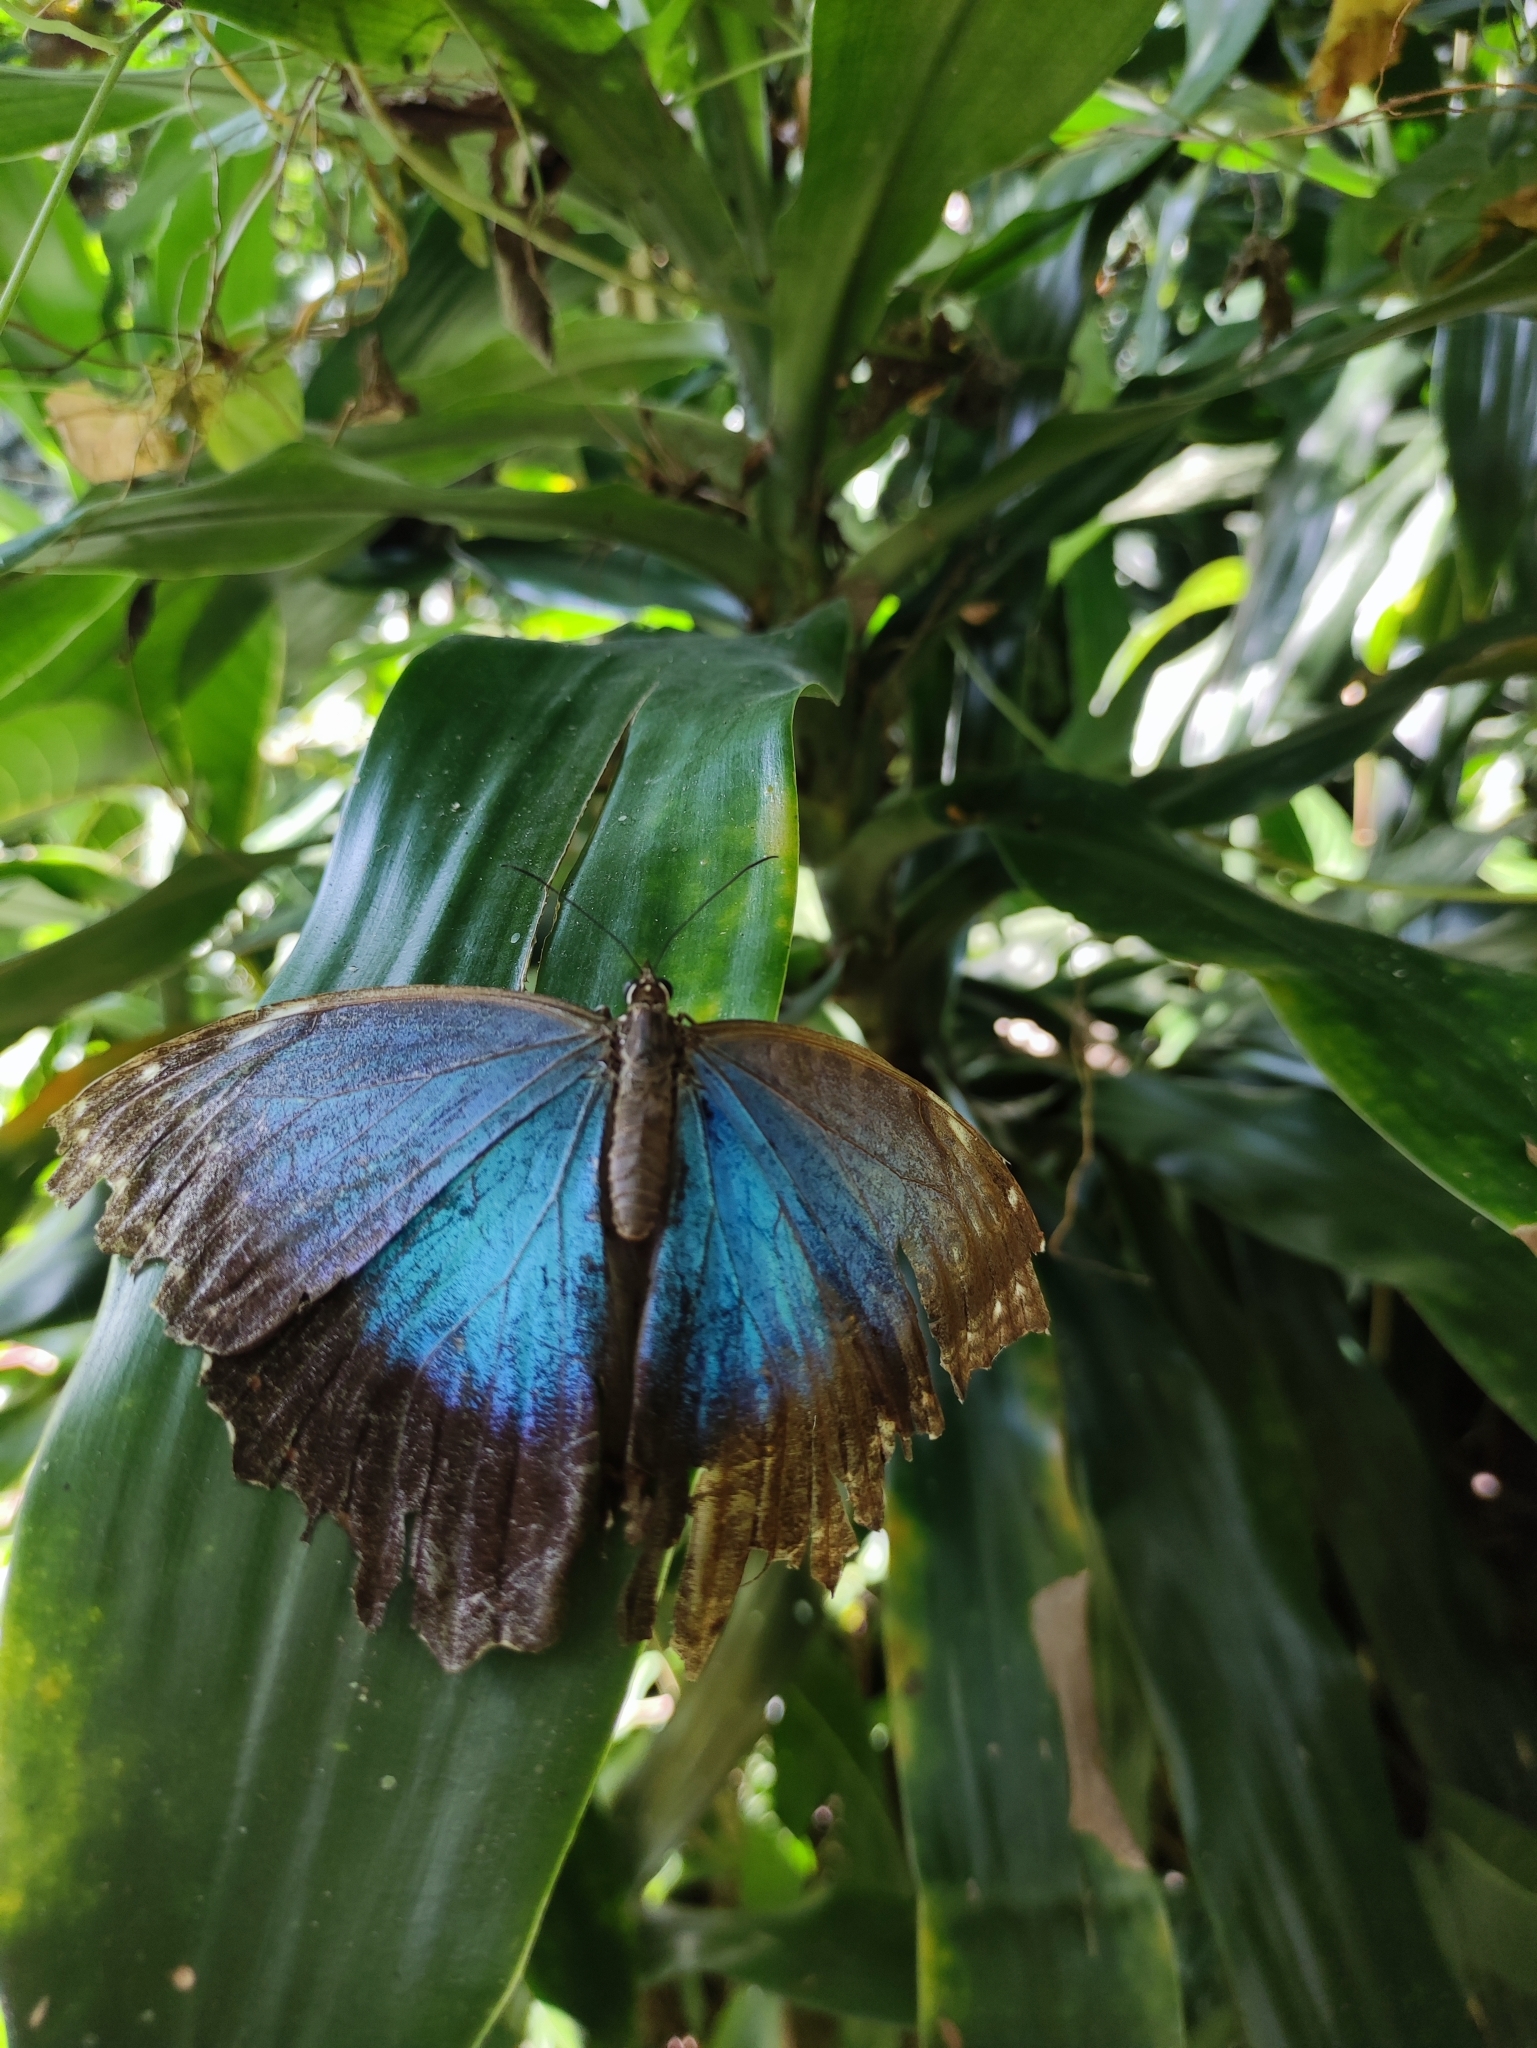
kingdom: Animalia
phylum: Arthropoda
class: Insecta
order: Lepidoptera
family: Nymphalidae
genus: Morpho
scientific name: Morpho helenor
